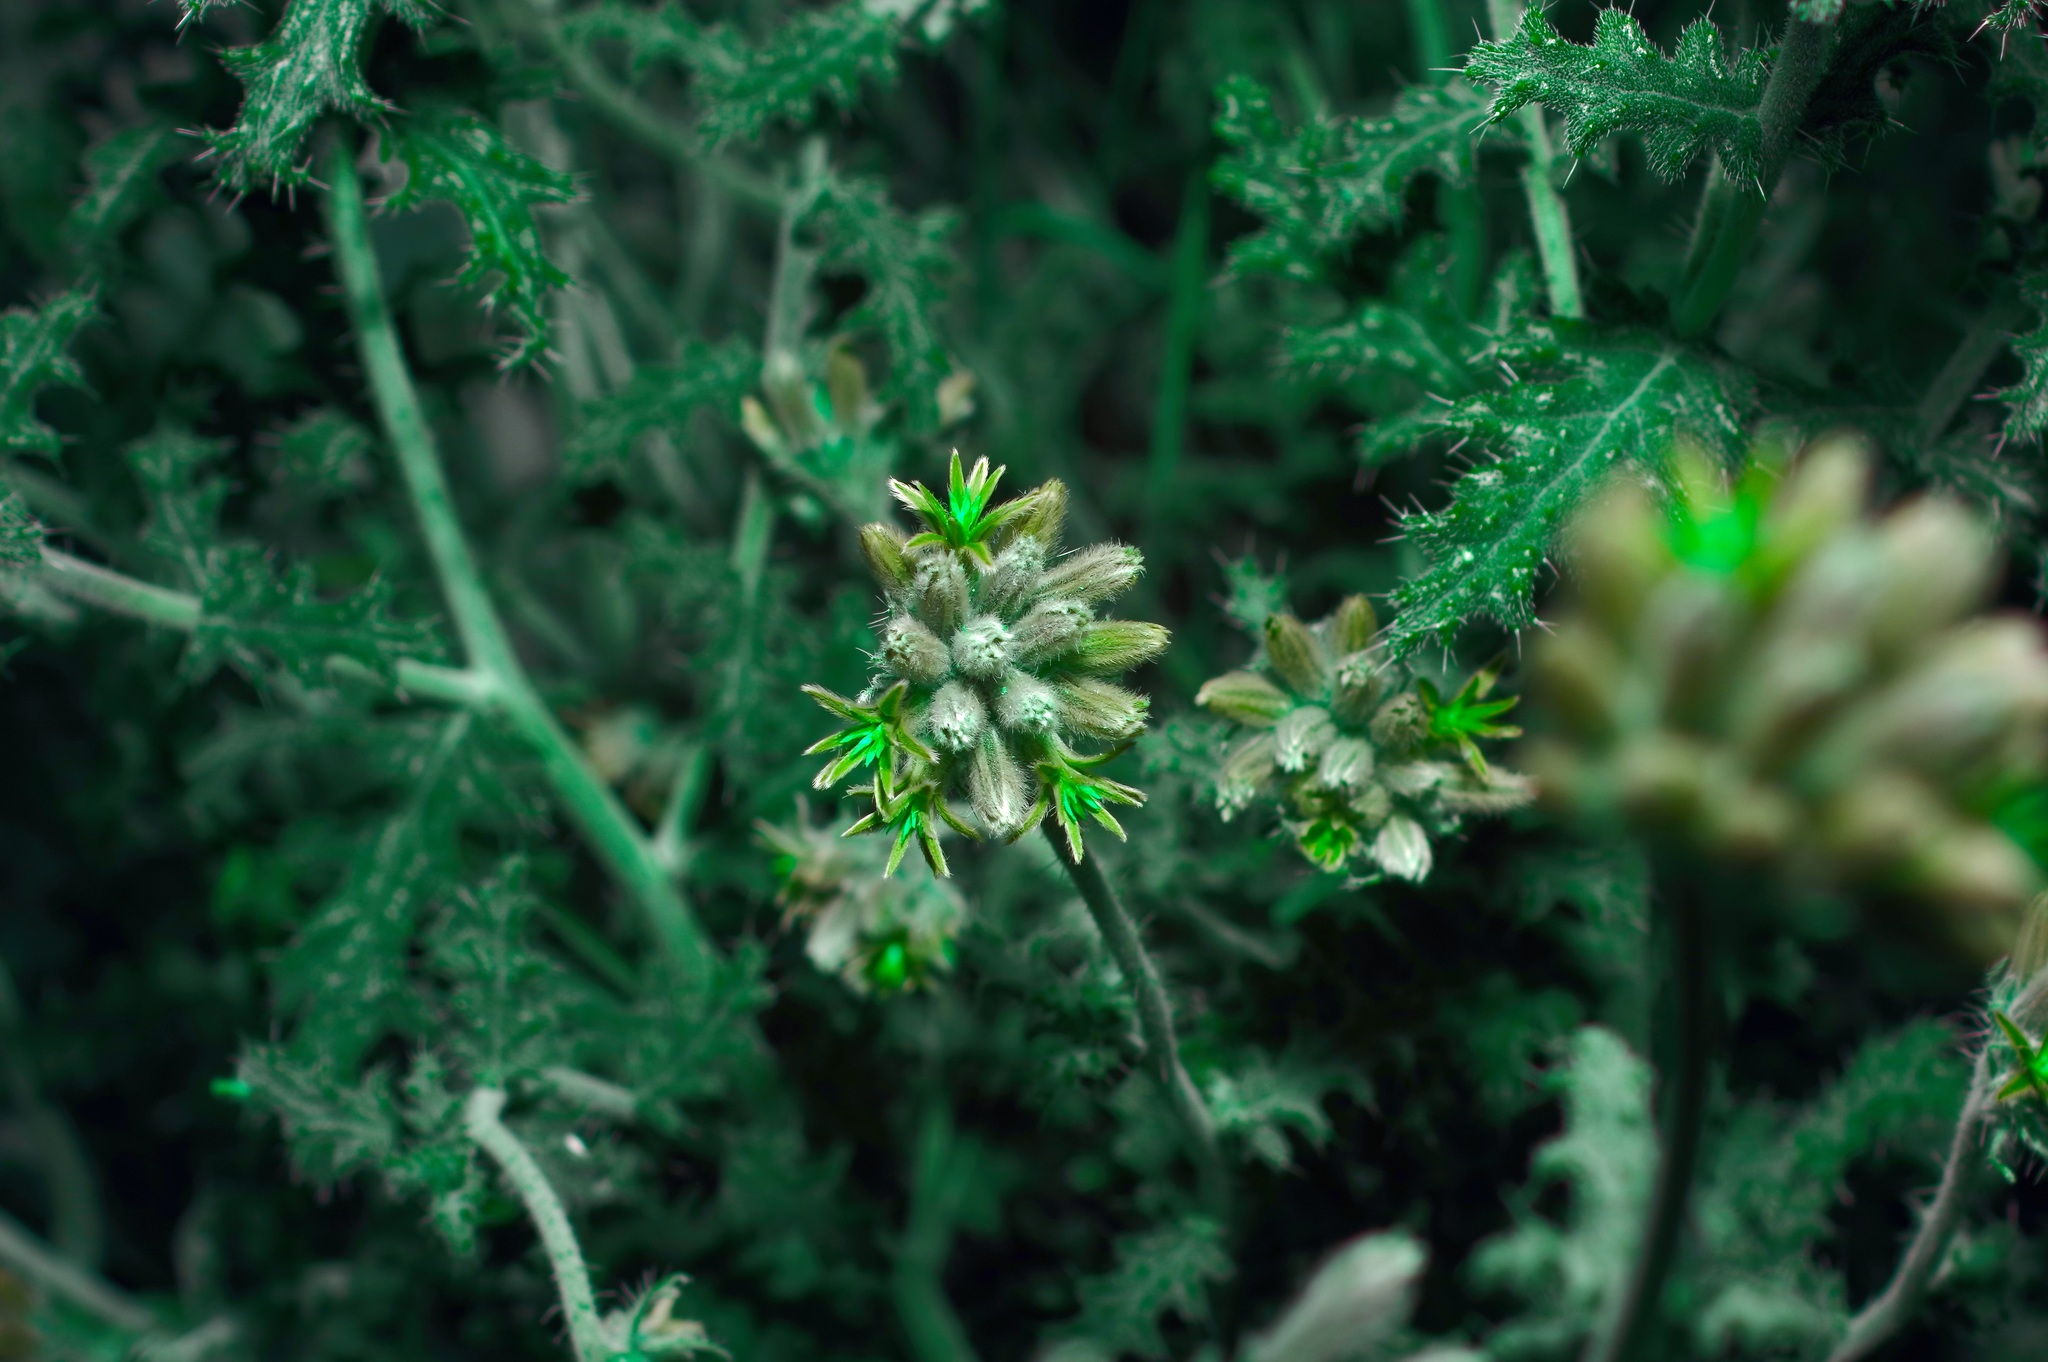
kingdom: Plantae
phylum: Tracheophyta
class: Magnoliopsida
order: Cornales
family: Loasaceae
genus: Cevallia
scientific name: Cevallia sinuata
